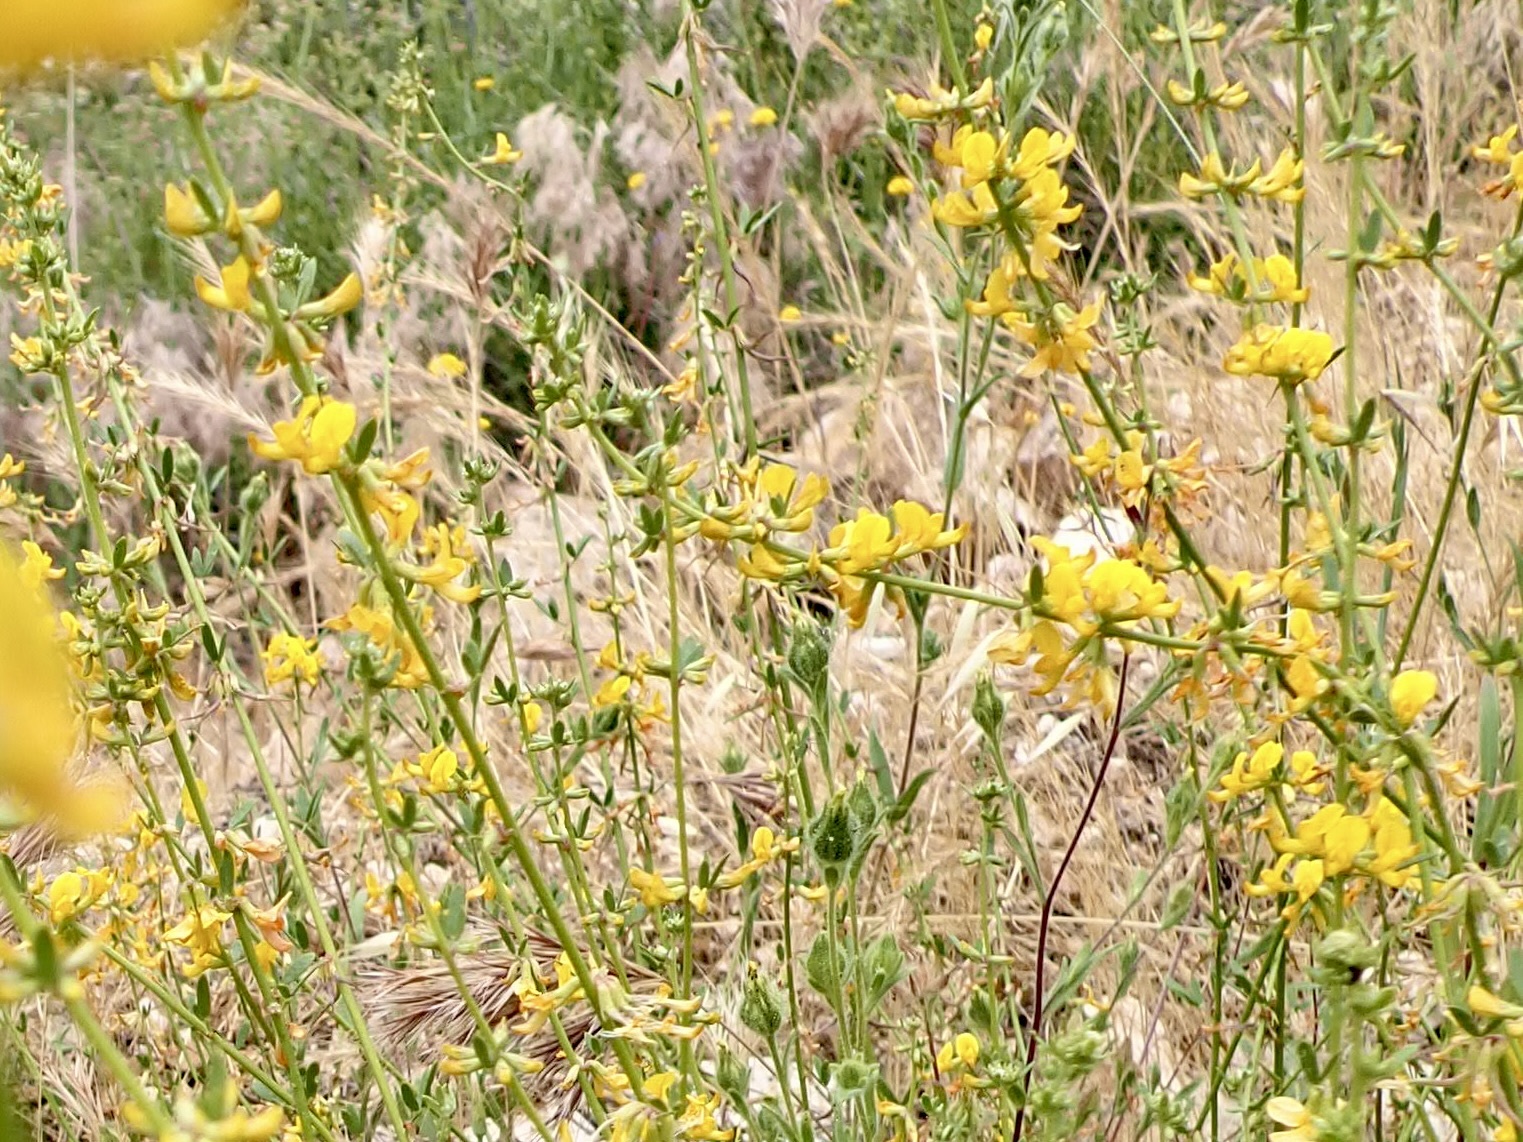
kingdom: Plantae
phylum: Tracheophyta
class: Magnoliopsida
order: Fabales
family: Fabaceae
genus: Acmispon
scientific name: Acmispon glaber
